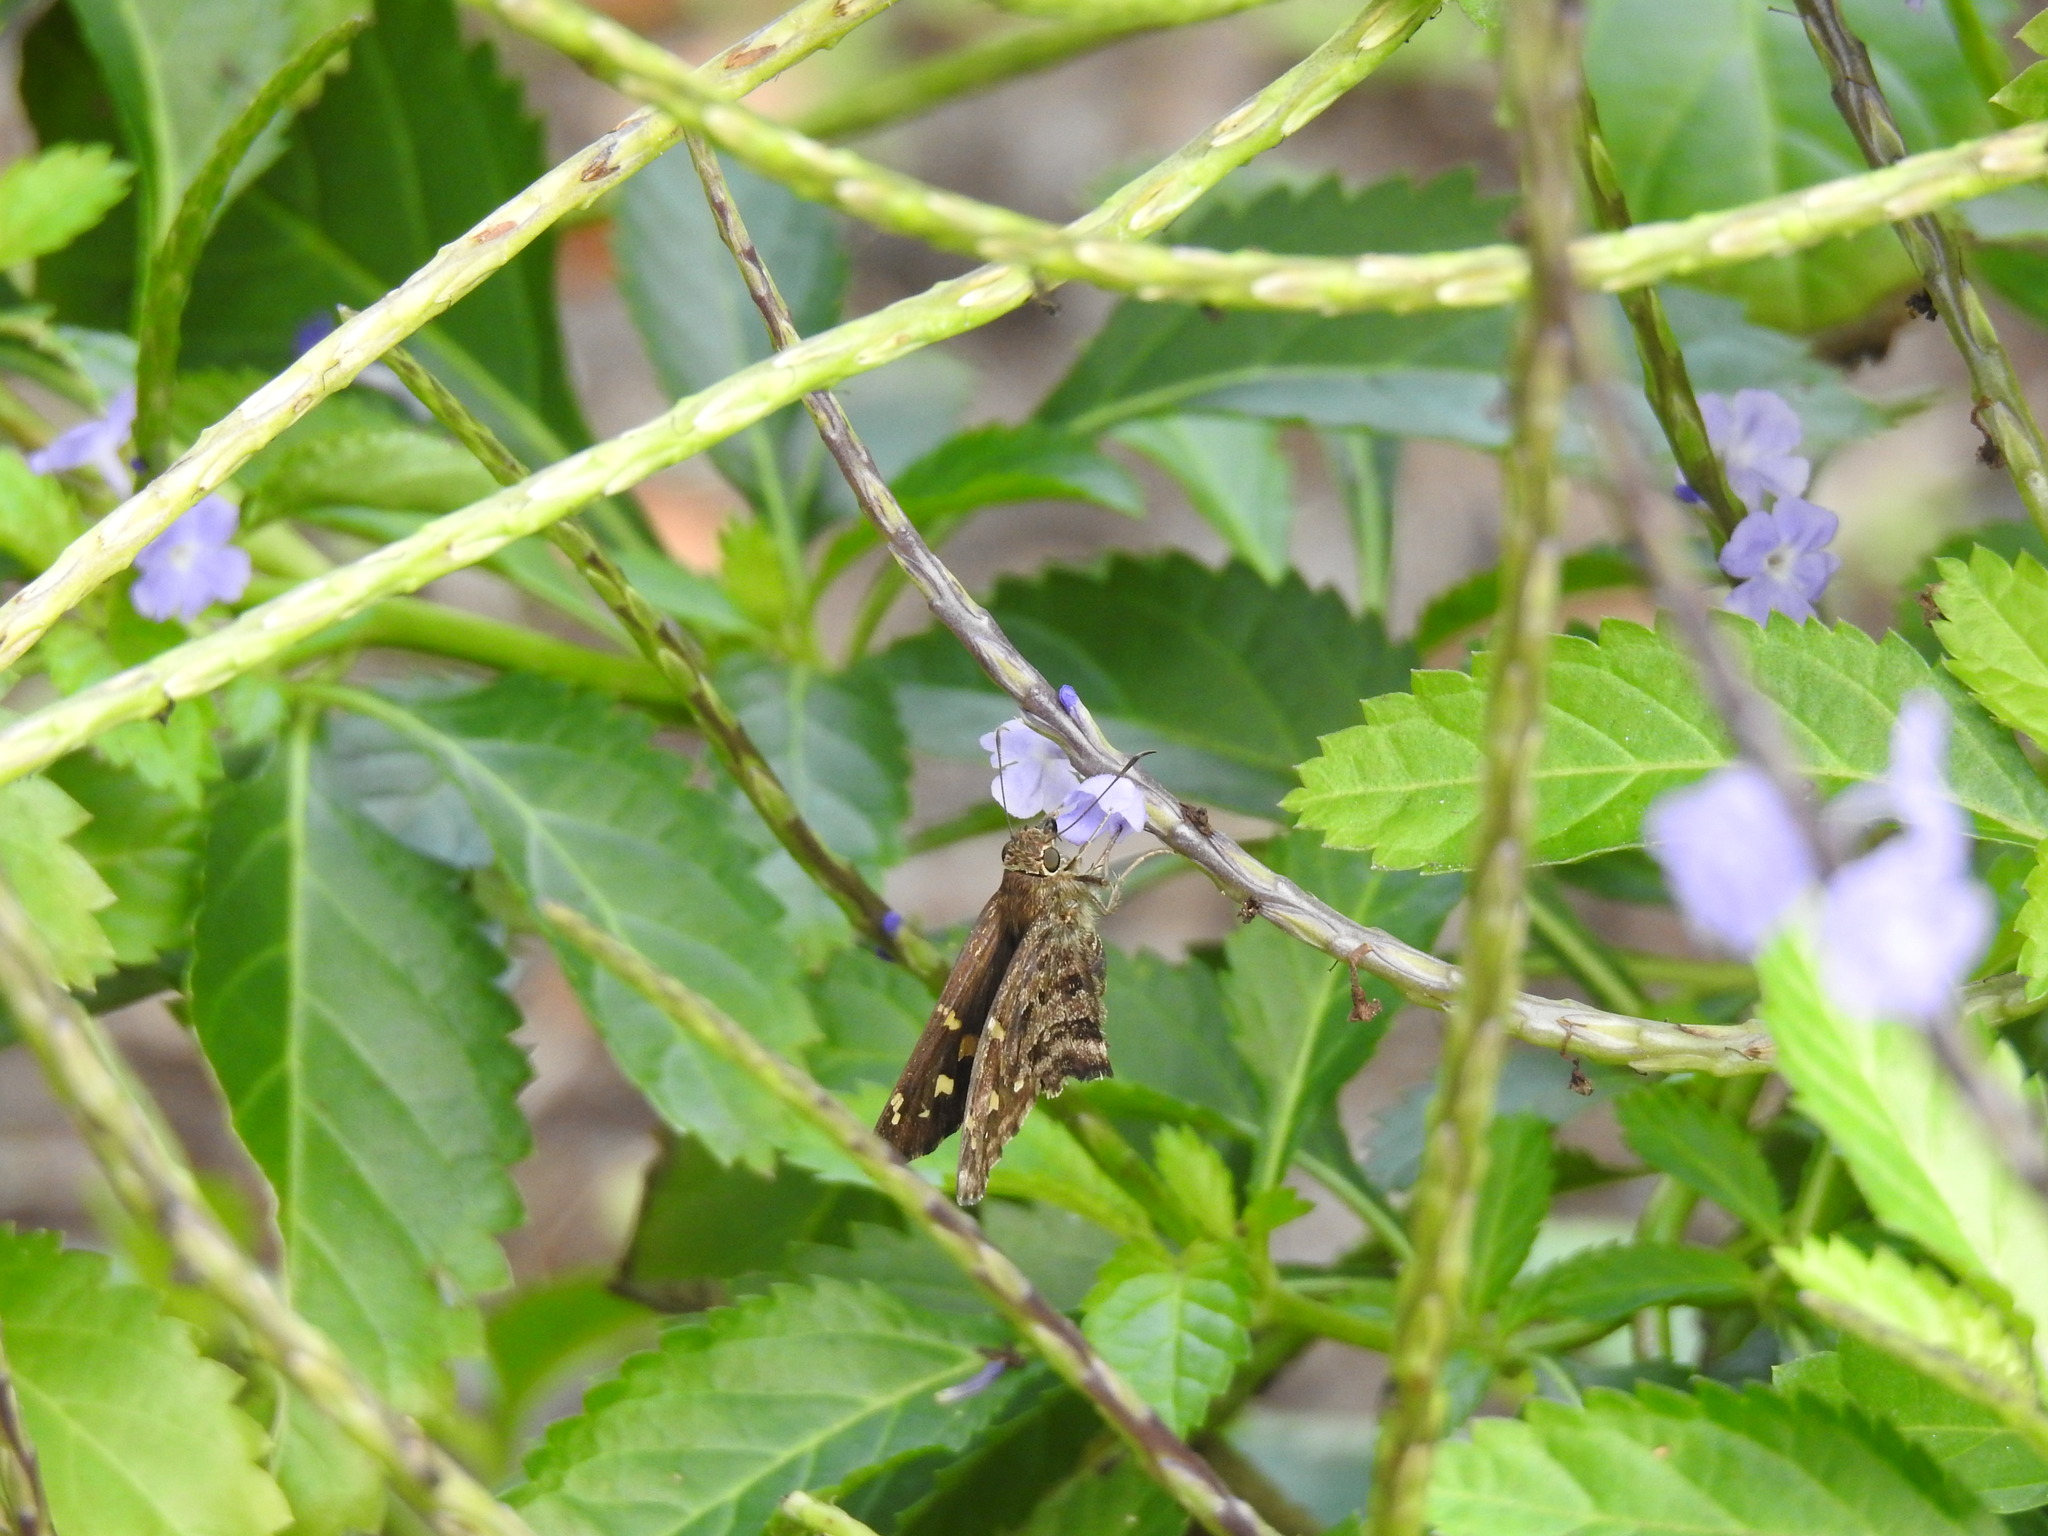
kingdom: Animalia
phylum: Arthropoda
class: Insecta
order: Lepidoptera
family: Hesperiidae
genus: Thorybes
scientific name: Thorybes
